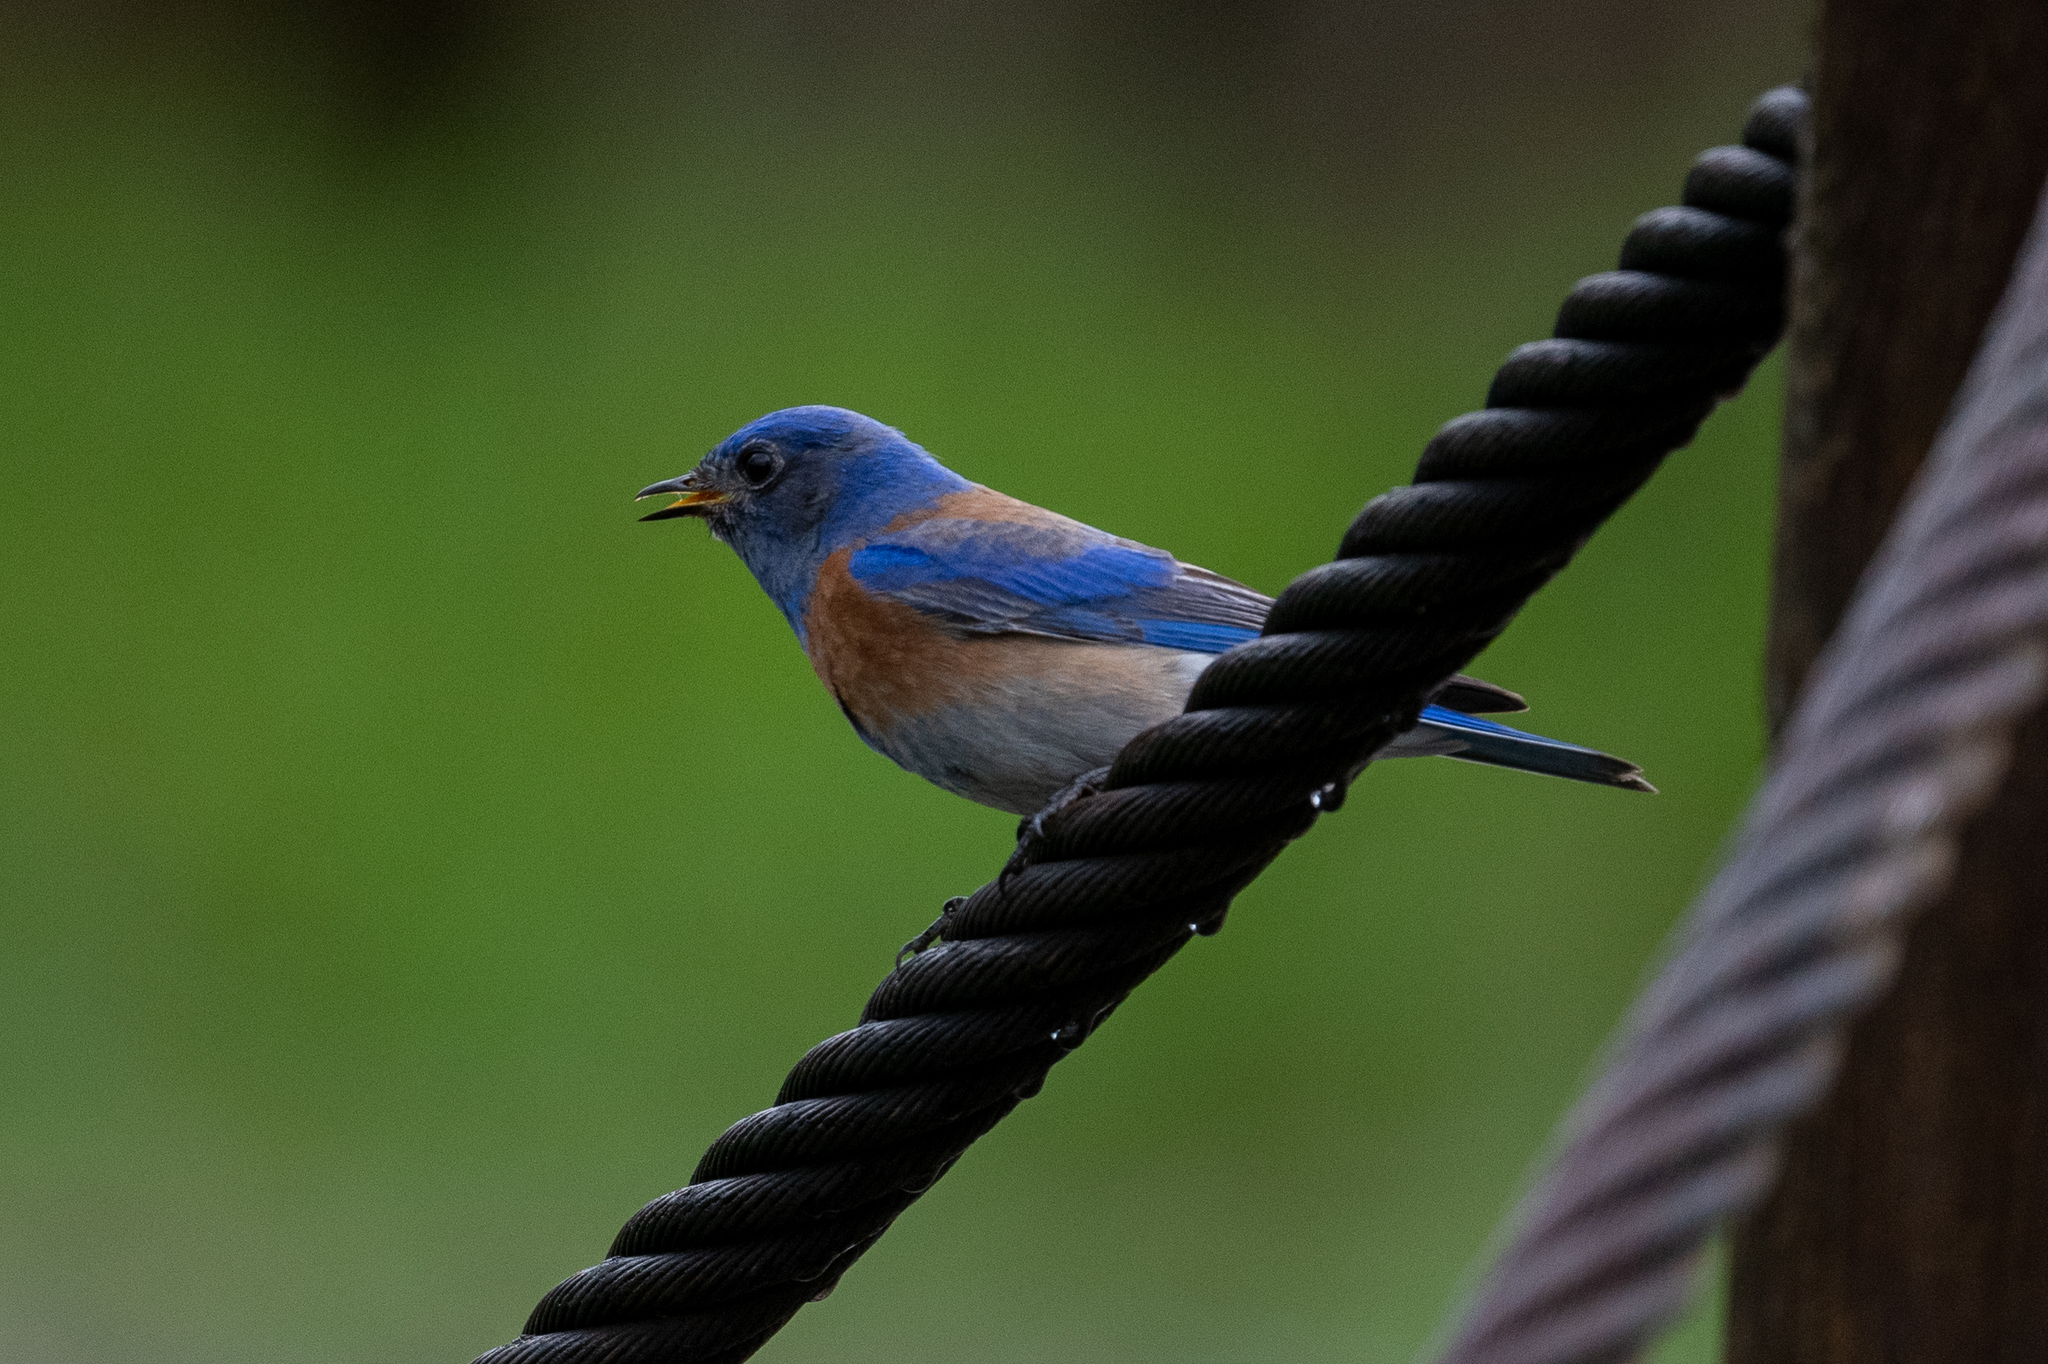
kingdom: Animalia
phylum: Chordata
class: Aves
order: Passeriformes
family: Turdidae
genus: Sialia
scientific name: Sialia mexicana
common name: Western bluebird
